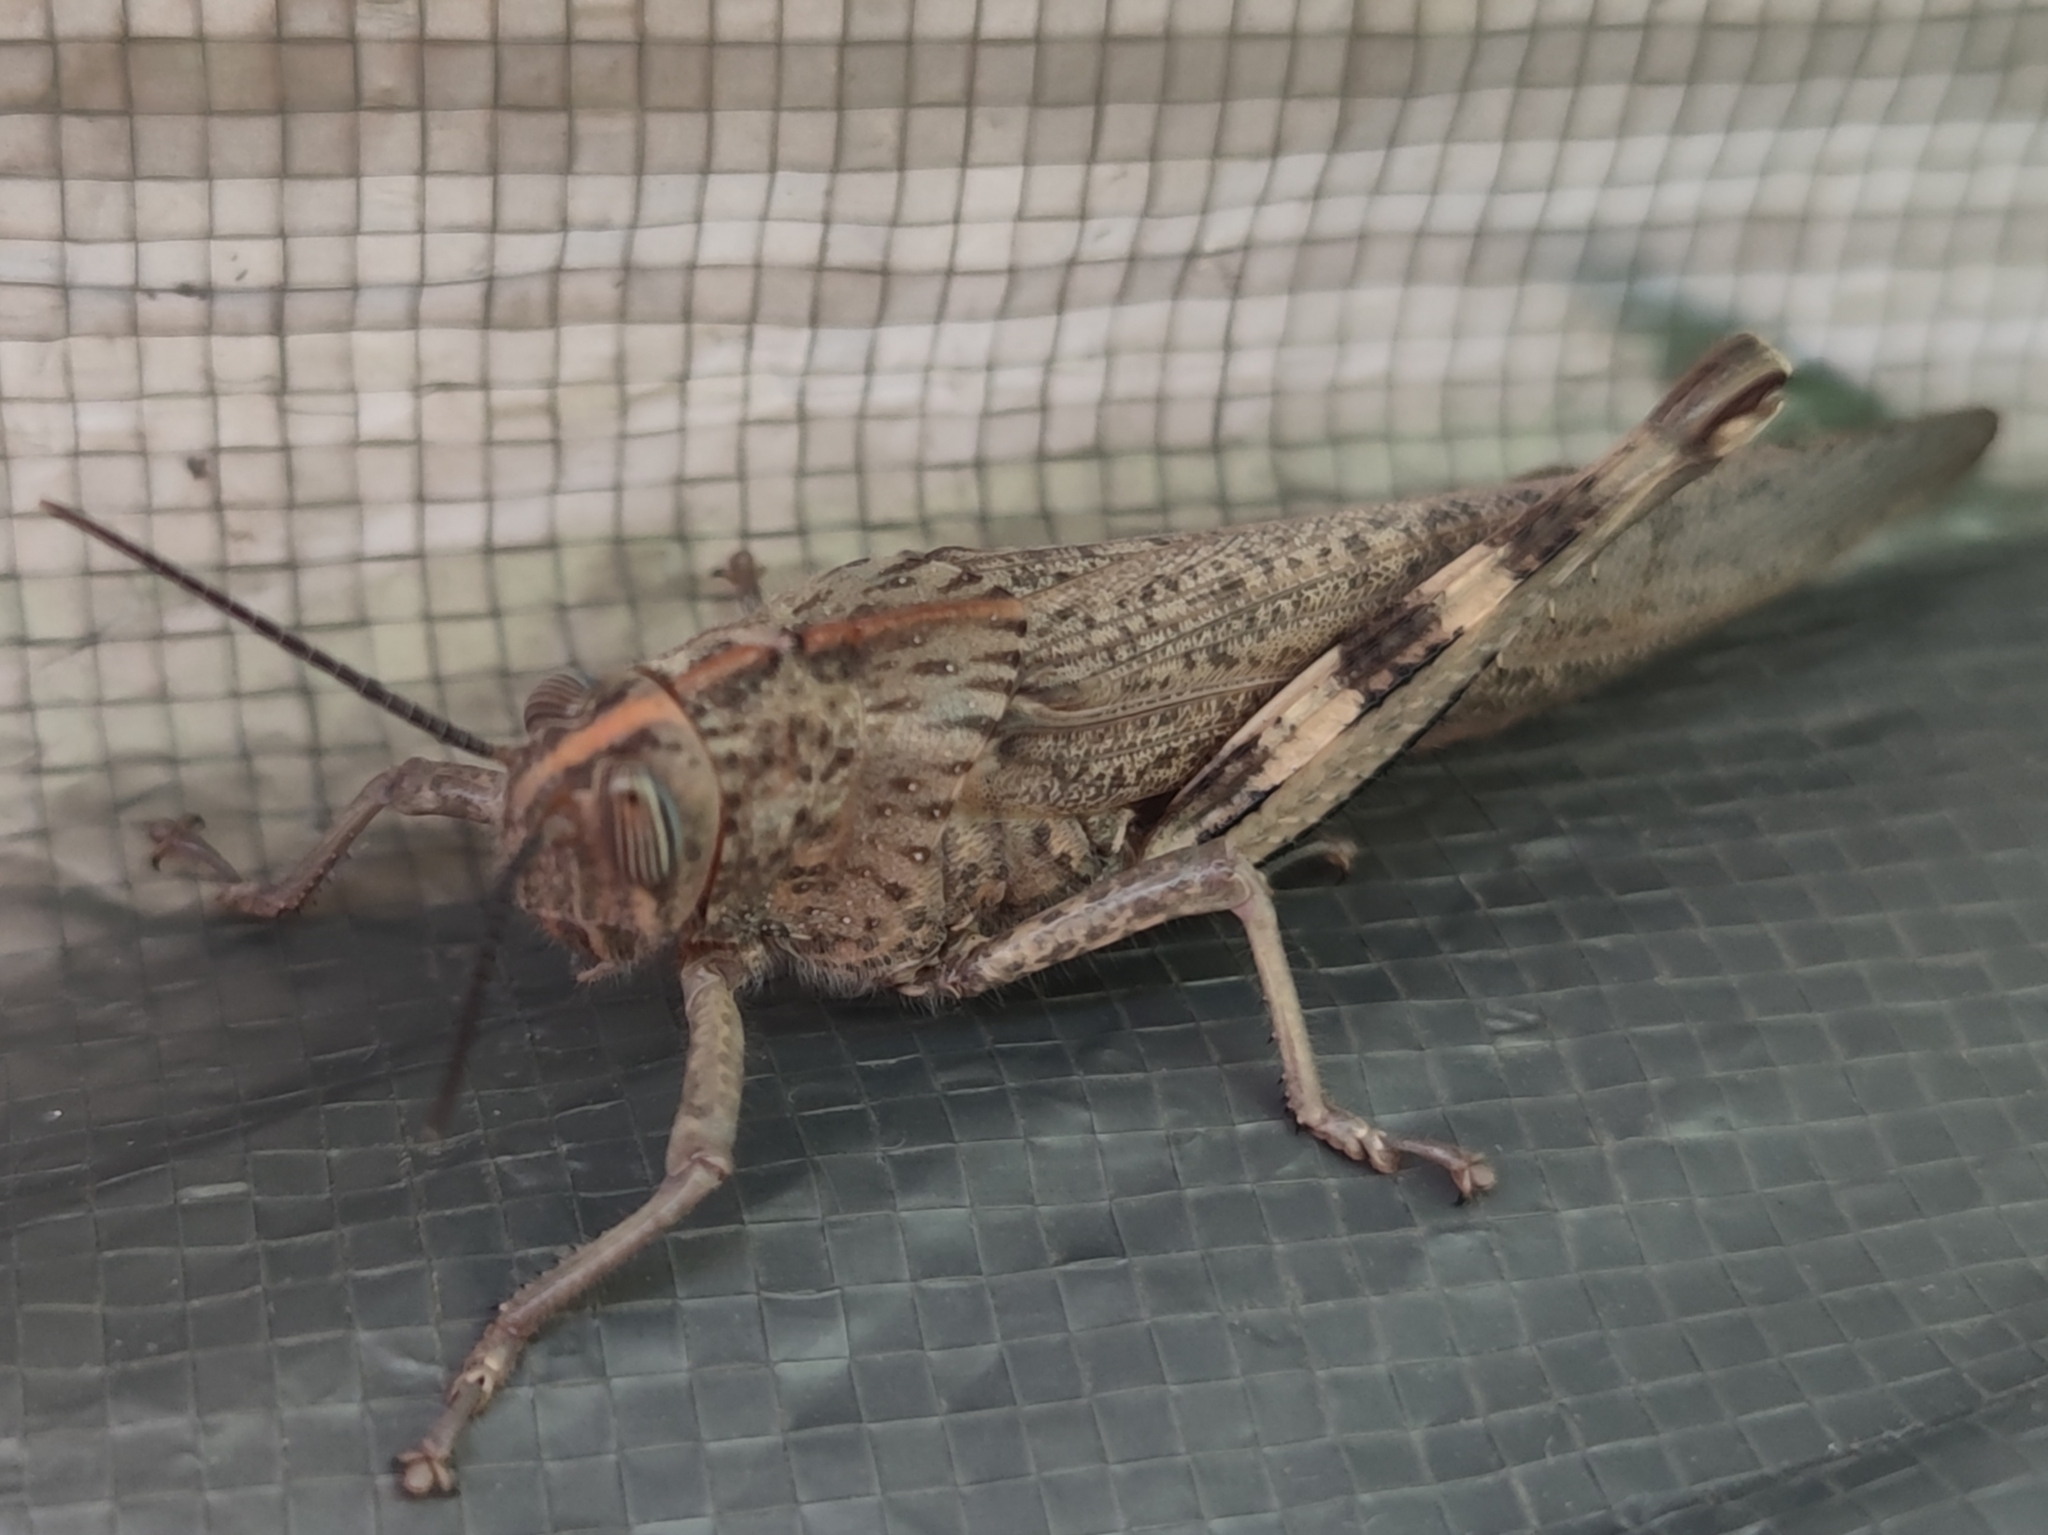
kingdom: Animalia
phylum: Arthropoda
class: Insecta
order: Orthoptera
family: Acrididae
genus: Anacridium
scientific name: Anacridium aegyptium
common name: Egyptian grasshopper
